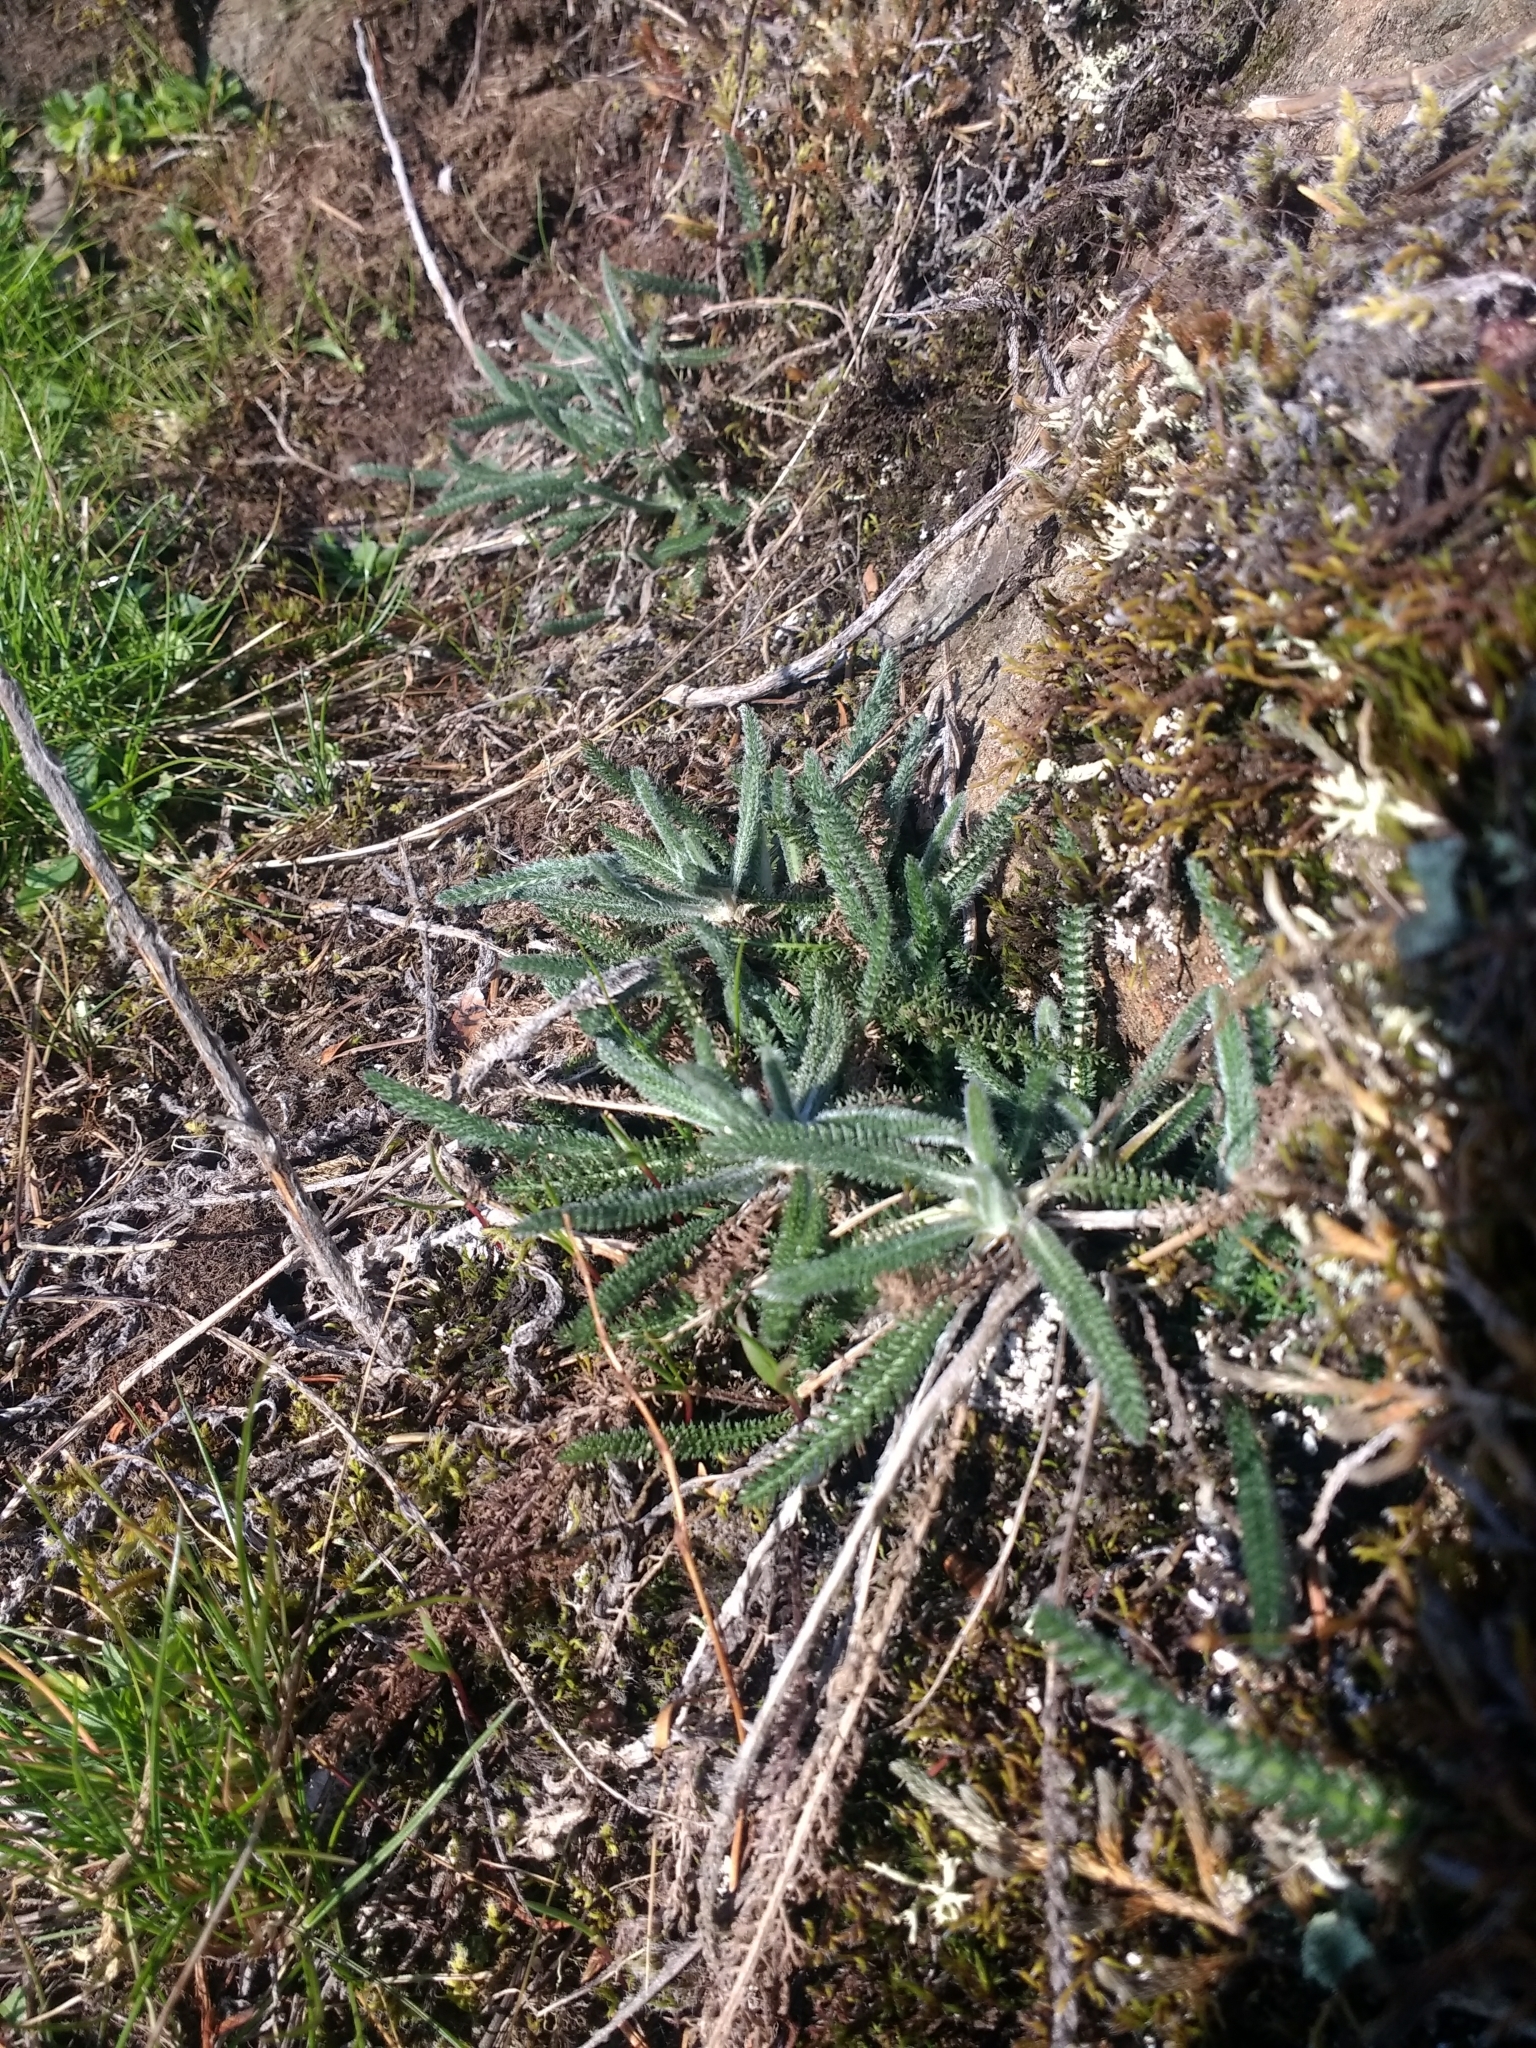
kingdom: Plantae
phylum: Tracheophyta
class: Magnoliopsida
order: Asterales
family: Asteraceae
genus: Achillea
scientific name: Achillea millefolium
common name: Yarrow
